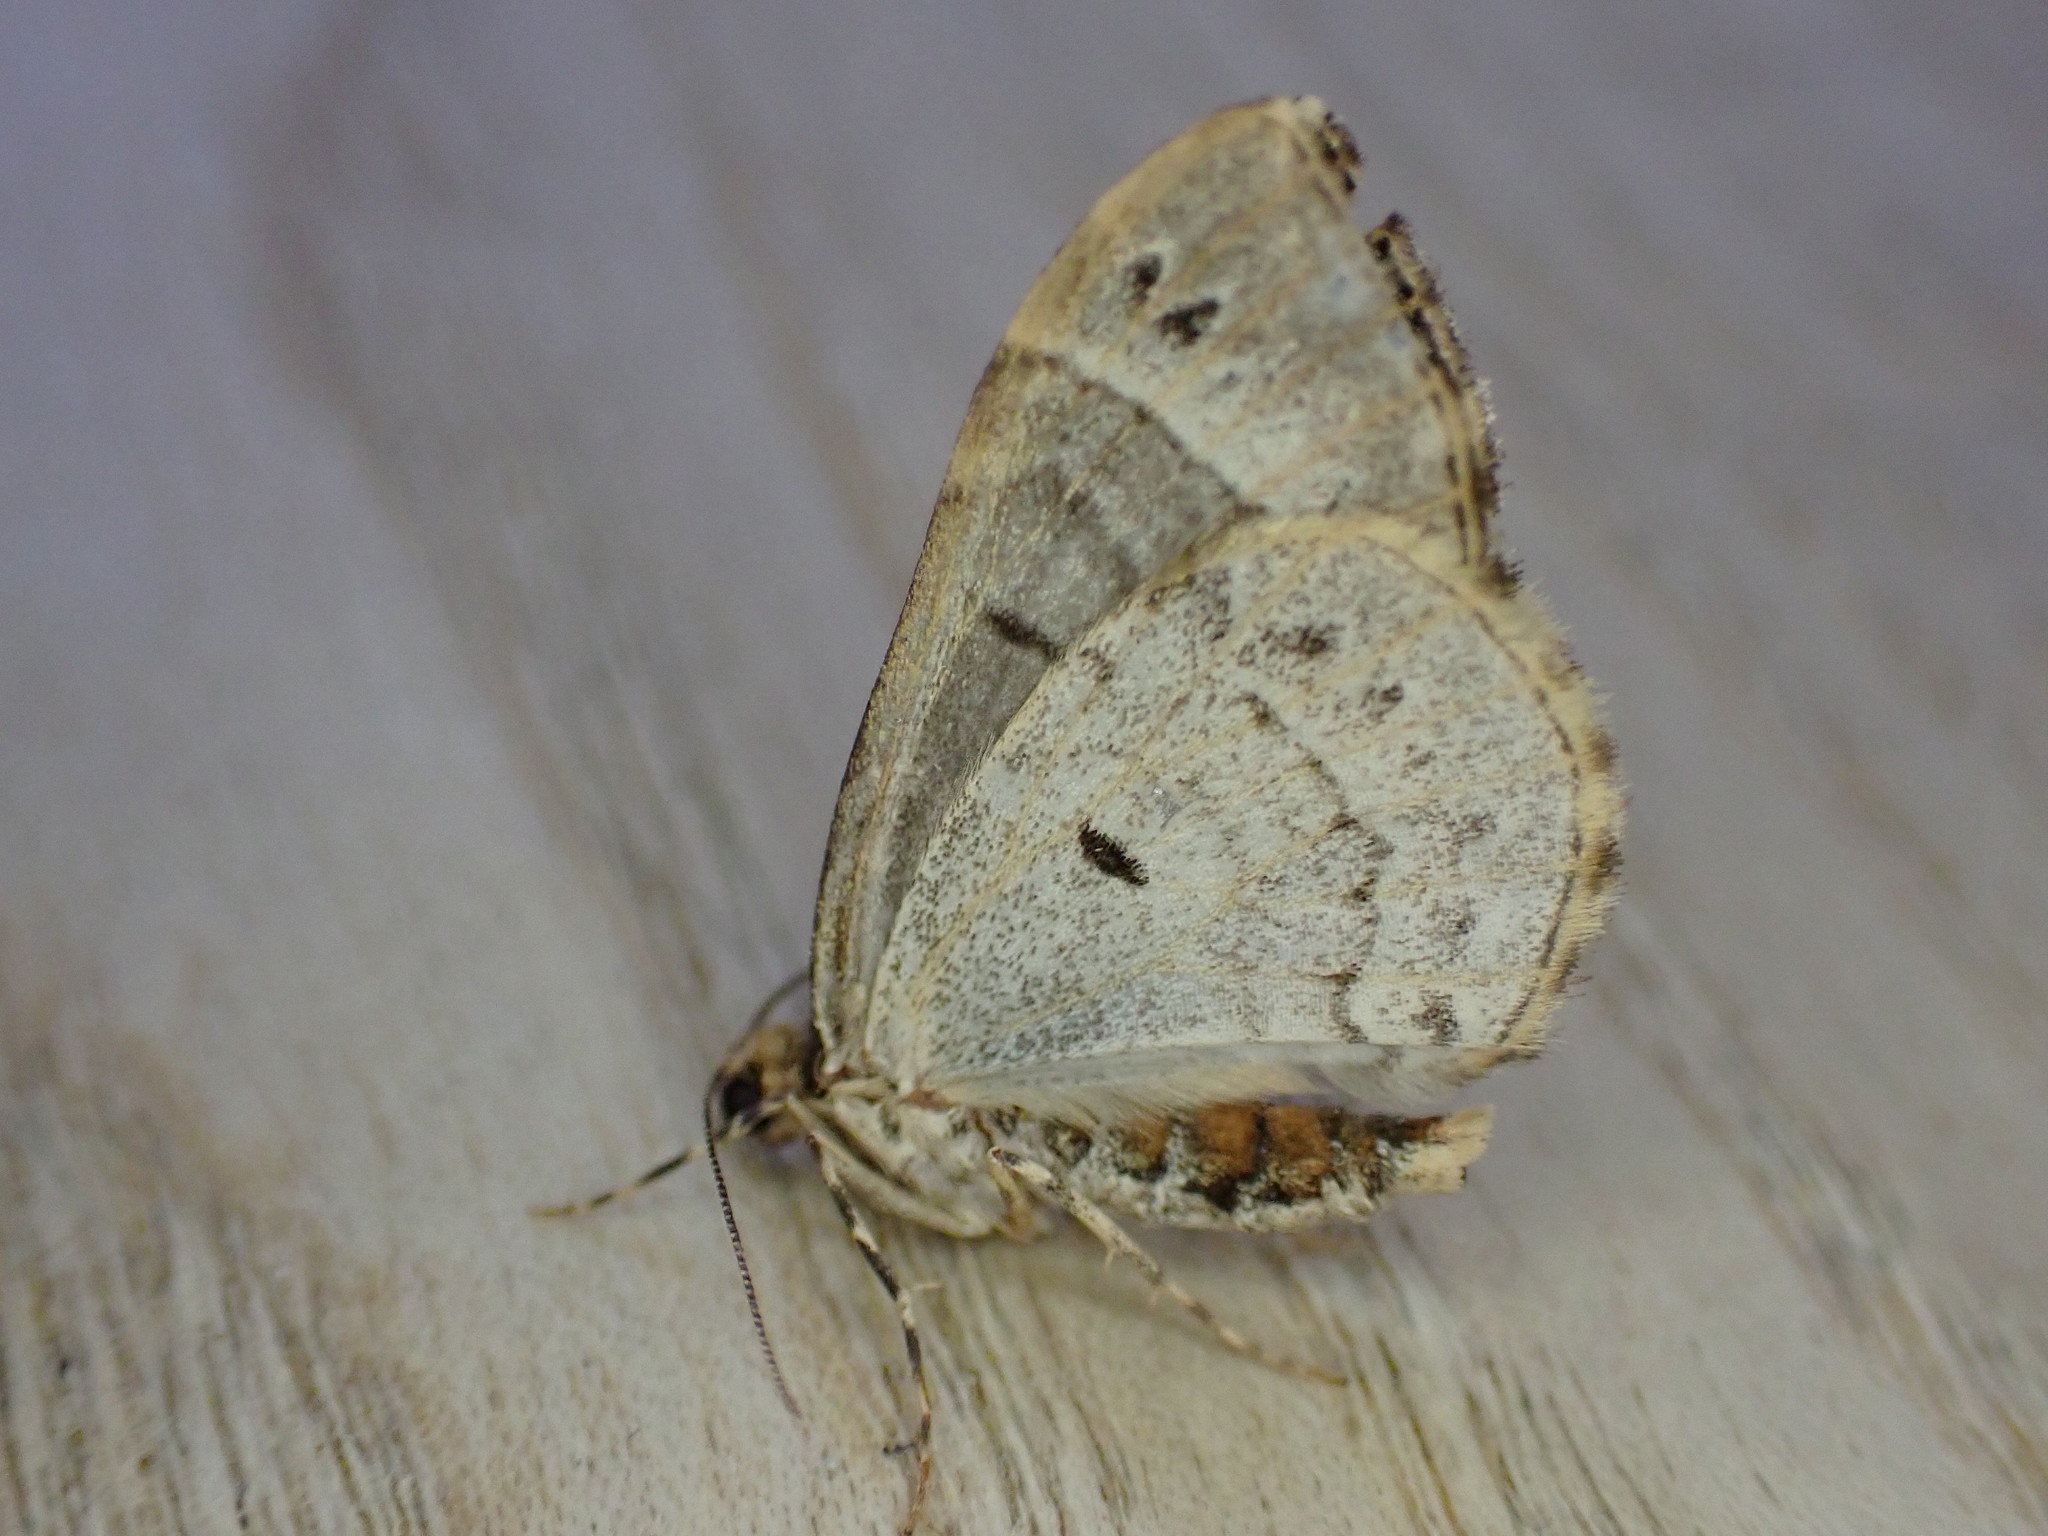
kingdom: Animalia
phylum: Arthropoda
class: Insecta
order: Lepidoptera
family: Geometridae
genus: Ecliptopera
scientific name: Ecliptopera silaceata
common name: Small phoenix
